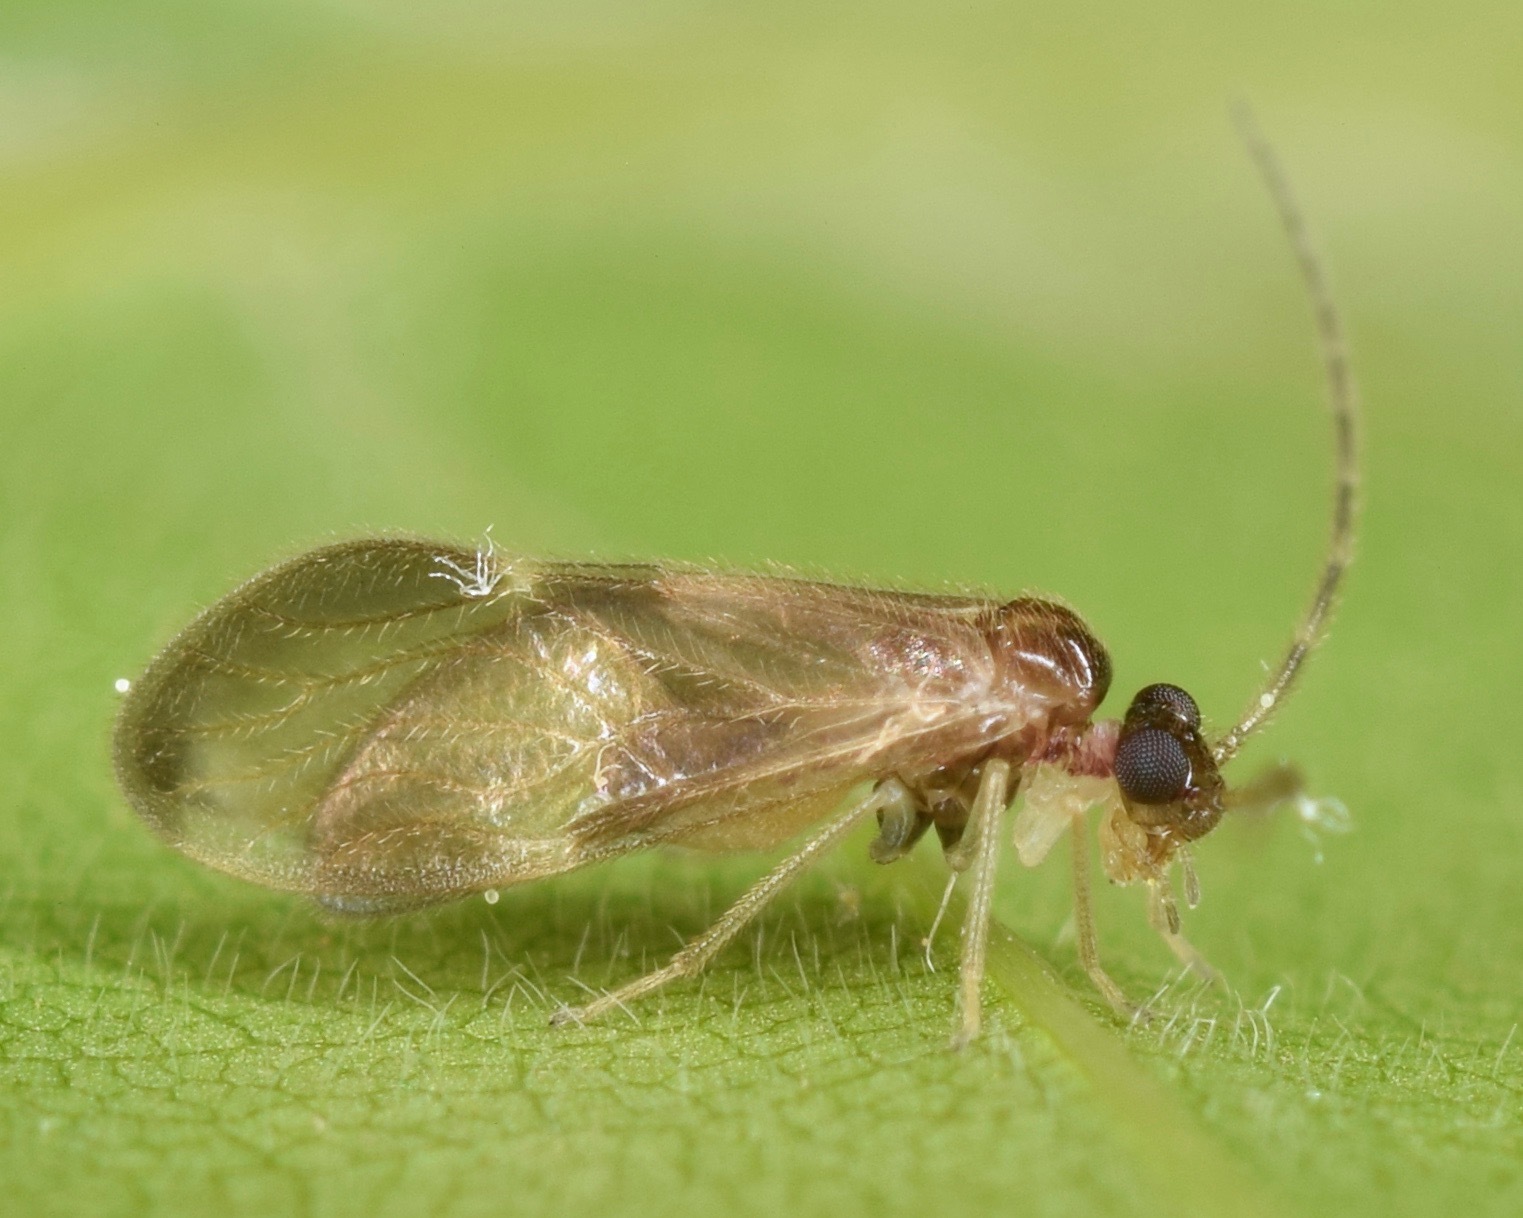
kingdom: Animalia
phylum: Arthropoda
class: Insecta
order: Psocodea
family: Amphipsocidae
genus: Polypsocus
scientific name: Polypsocus corruptus
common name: Corrupt barklouse
